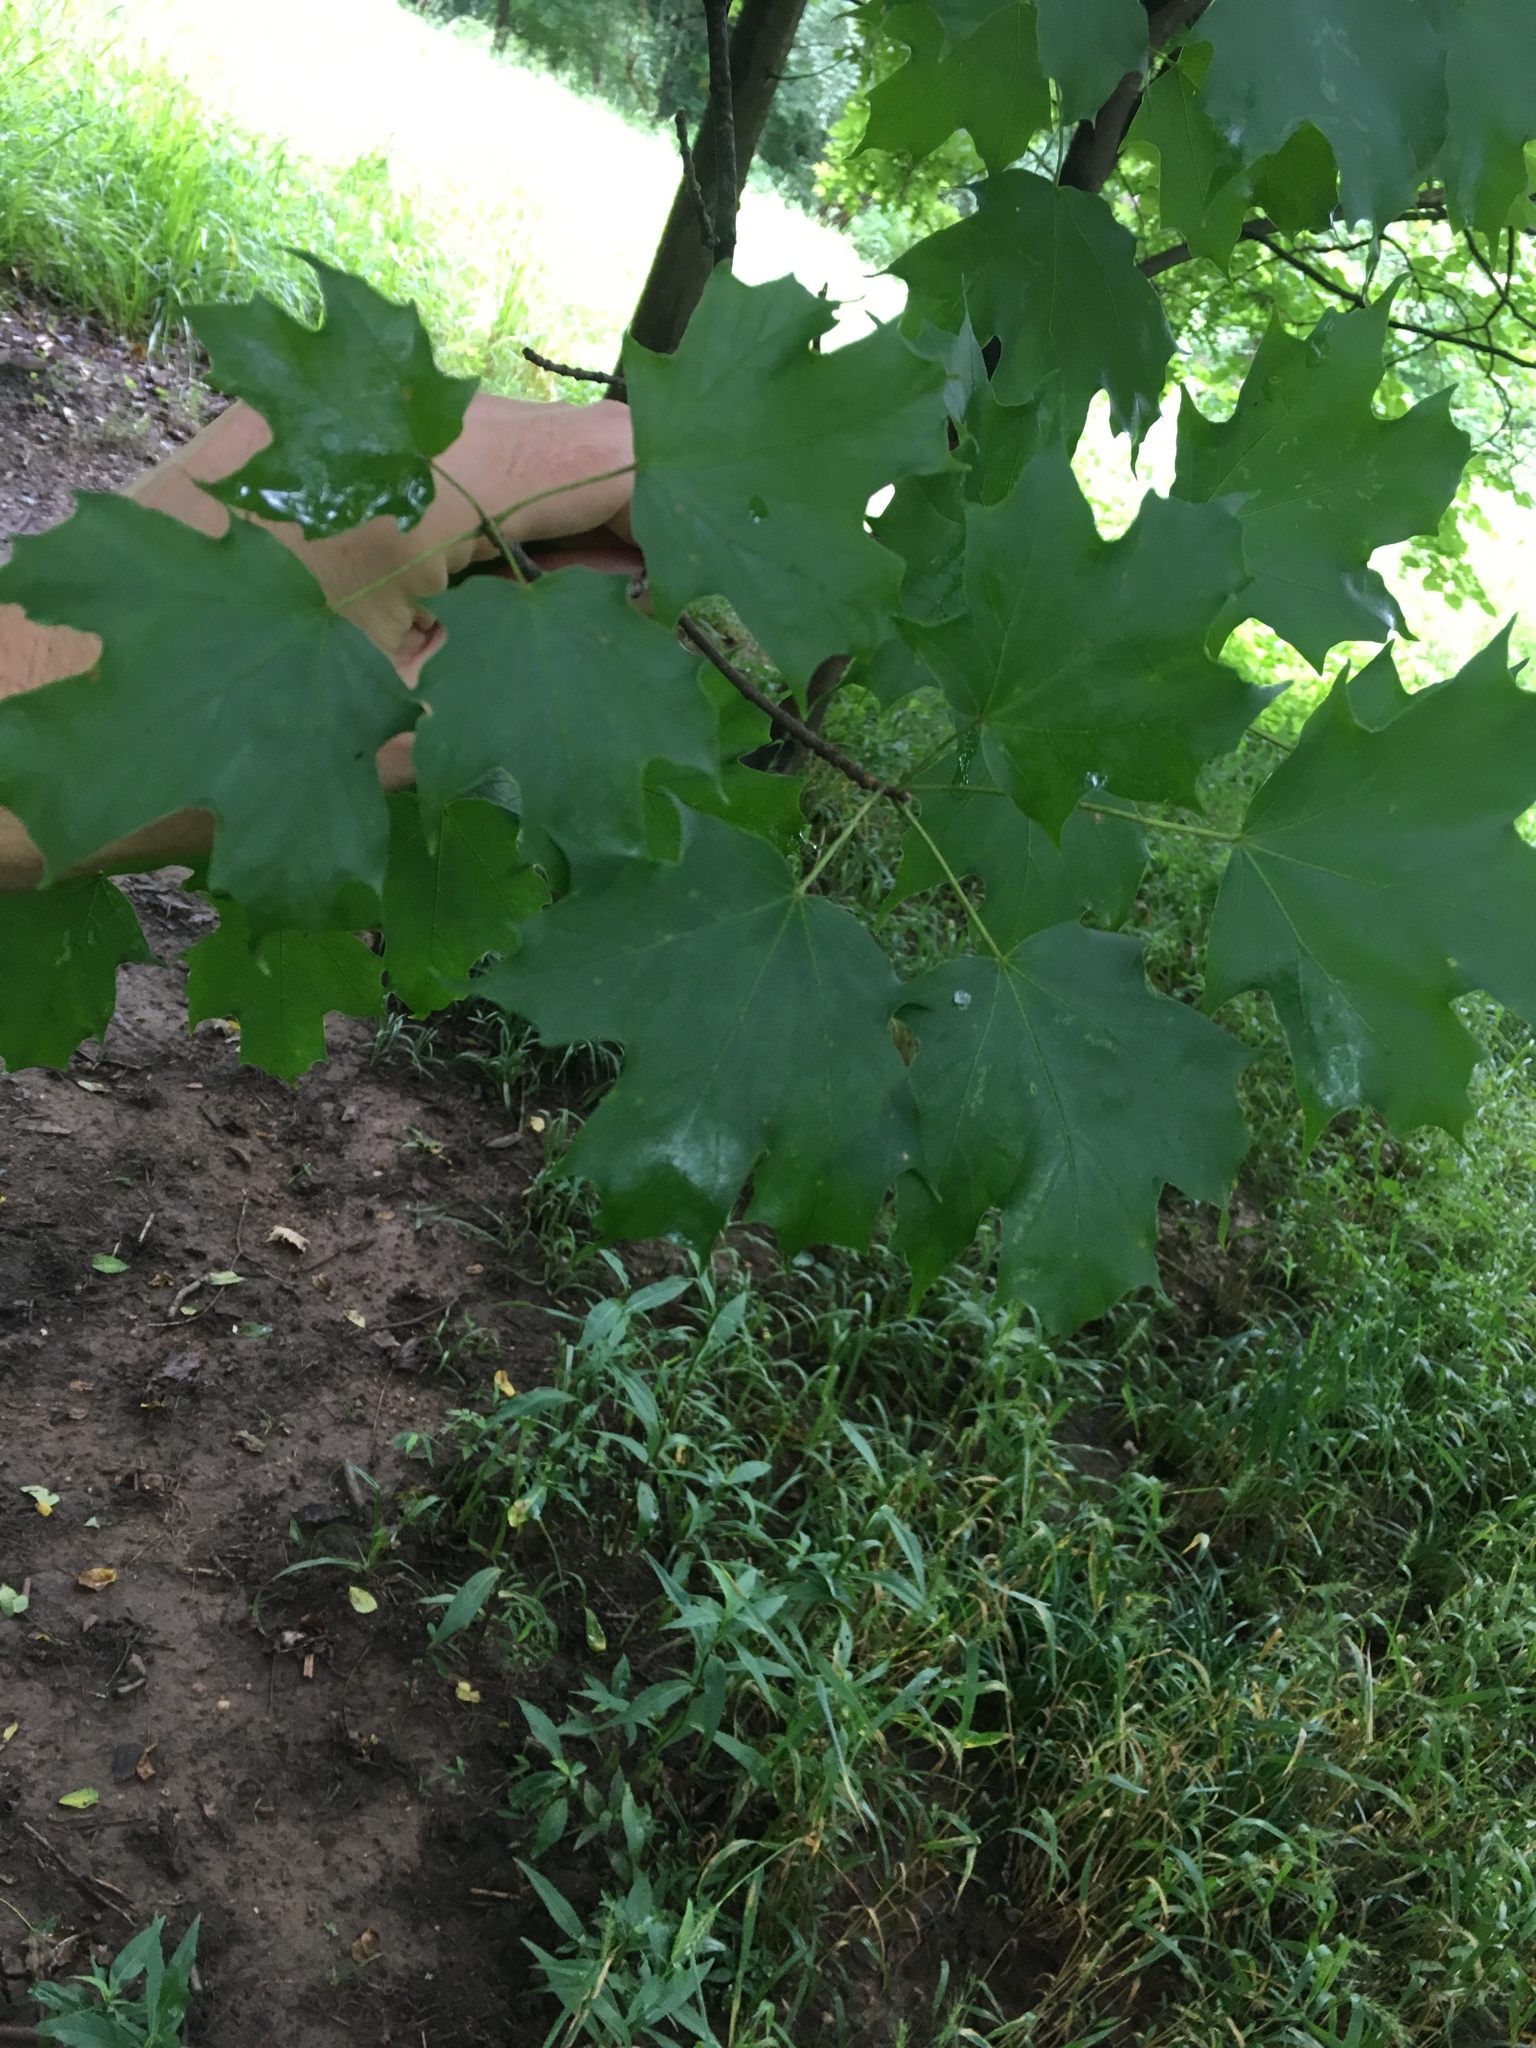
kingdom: Plantae
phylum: Tracheophyta
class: Magnoliopsida
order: Sapindales
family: Sapindaceae
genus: Acer
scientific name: Acer saccharum
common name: Sugar maple
